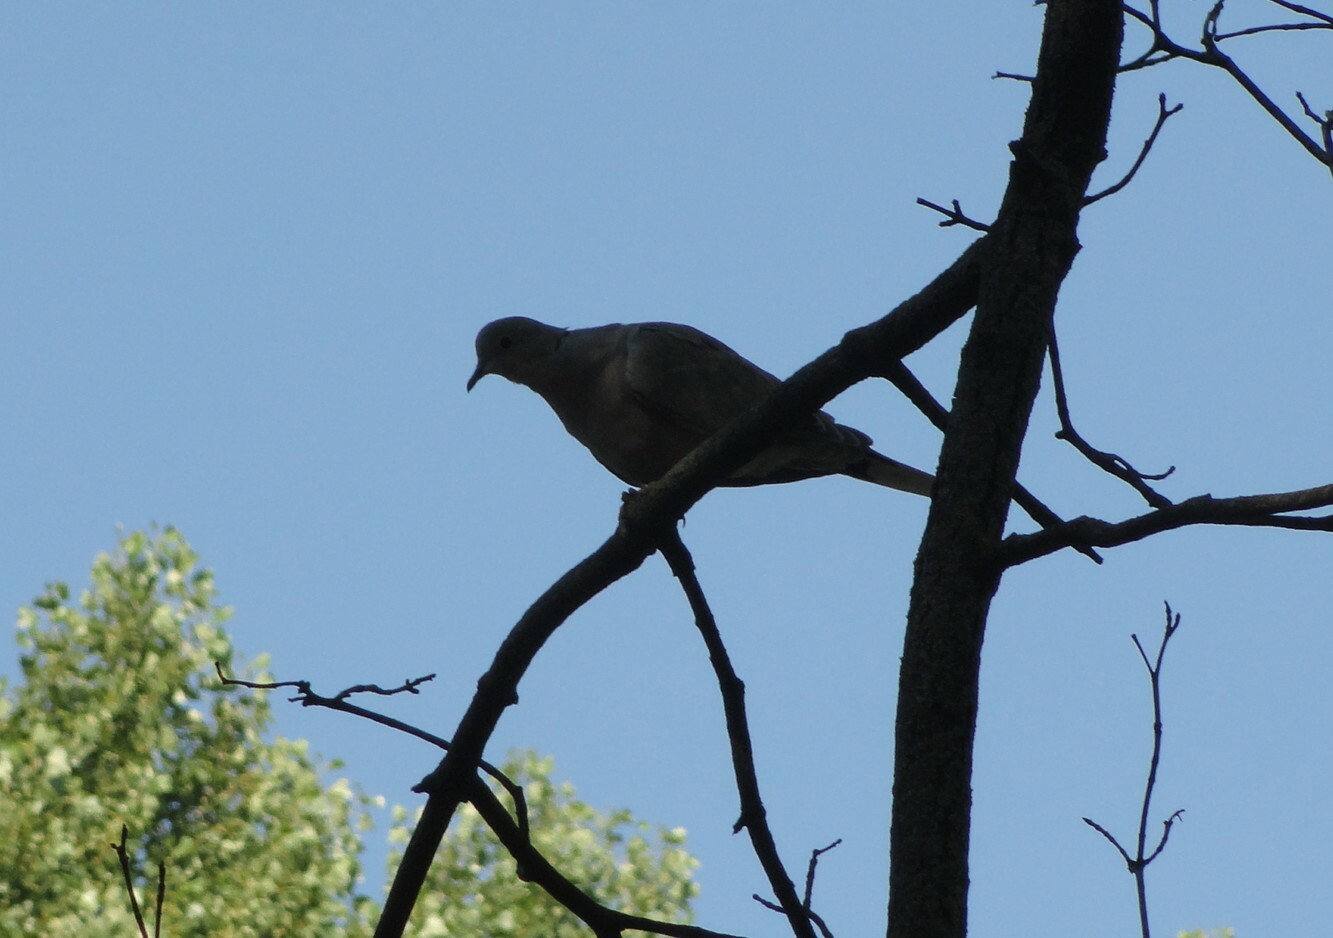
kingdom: Animalia
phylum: Chordata
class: Aves
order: Columbiformes
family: Columbidae
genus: Streptopelia
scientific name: Streptopelia decaocto
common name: Eurasian collared dove
